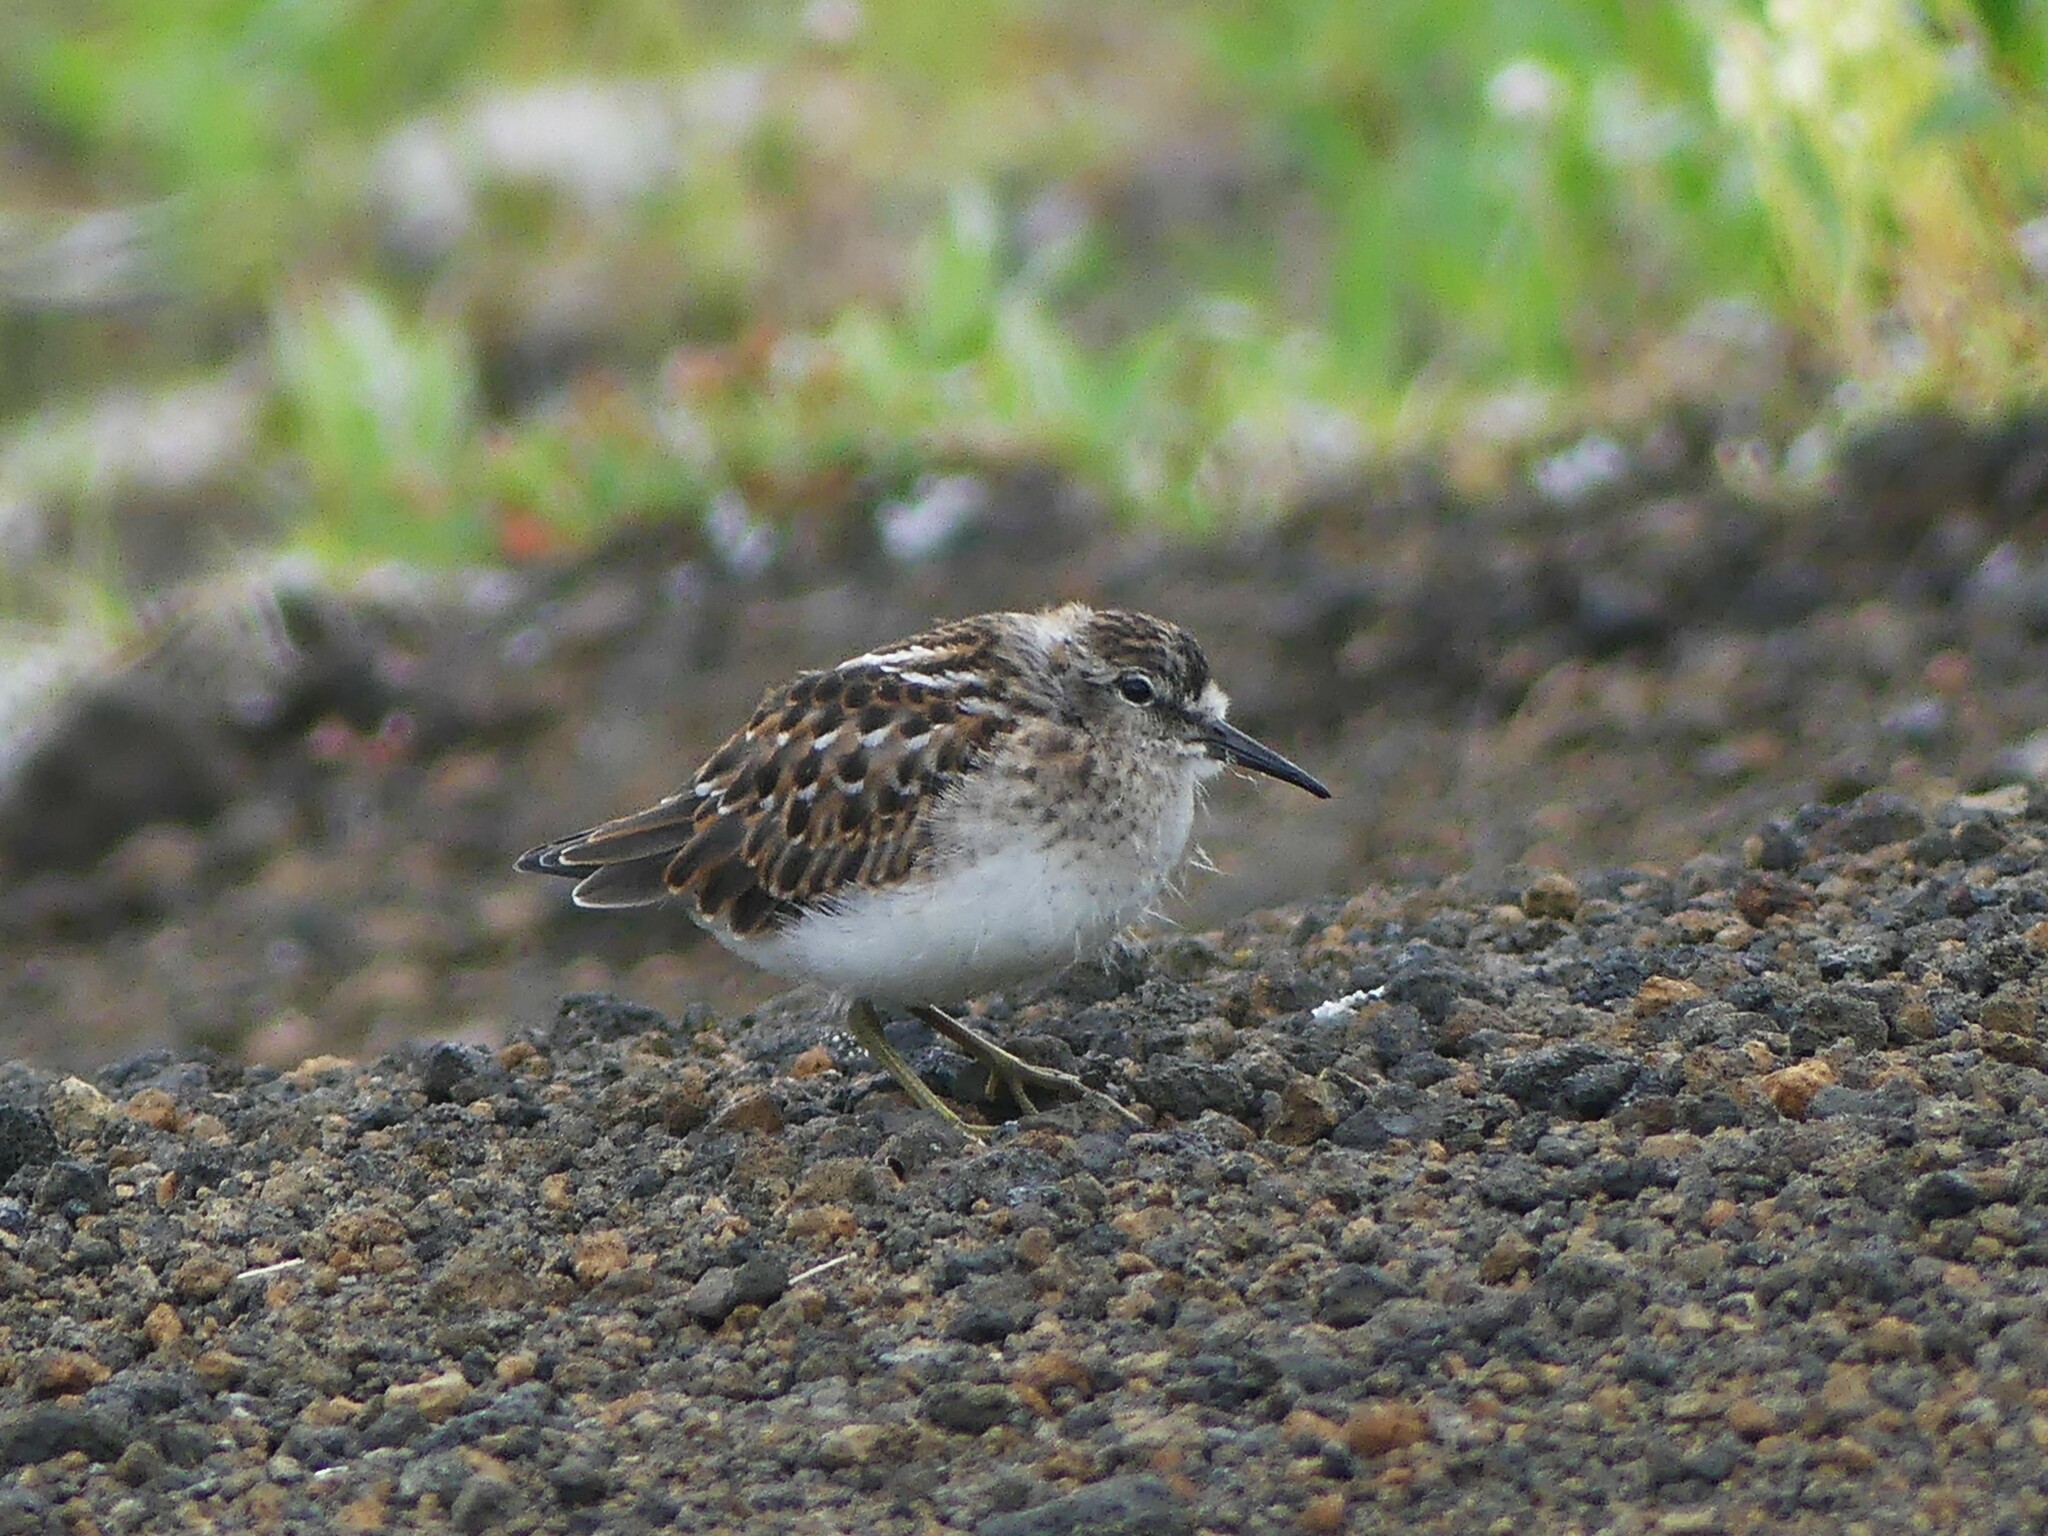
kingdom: Animalia
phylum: Chordata
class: Aves
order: Charadriiformes
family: Scolopacidae
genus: Calidris
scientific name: Calidris minutilla
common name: Least sandpiper
